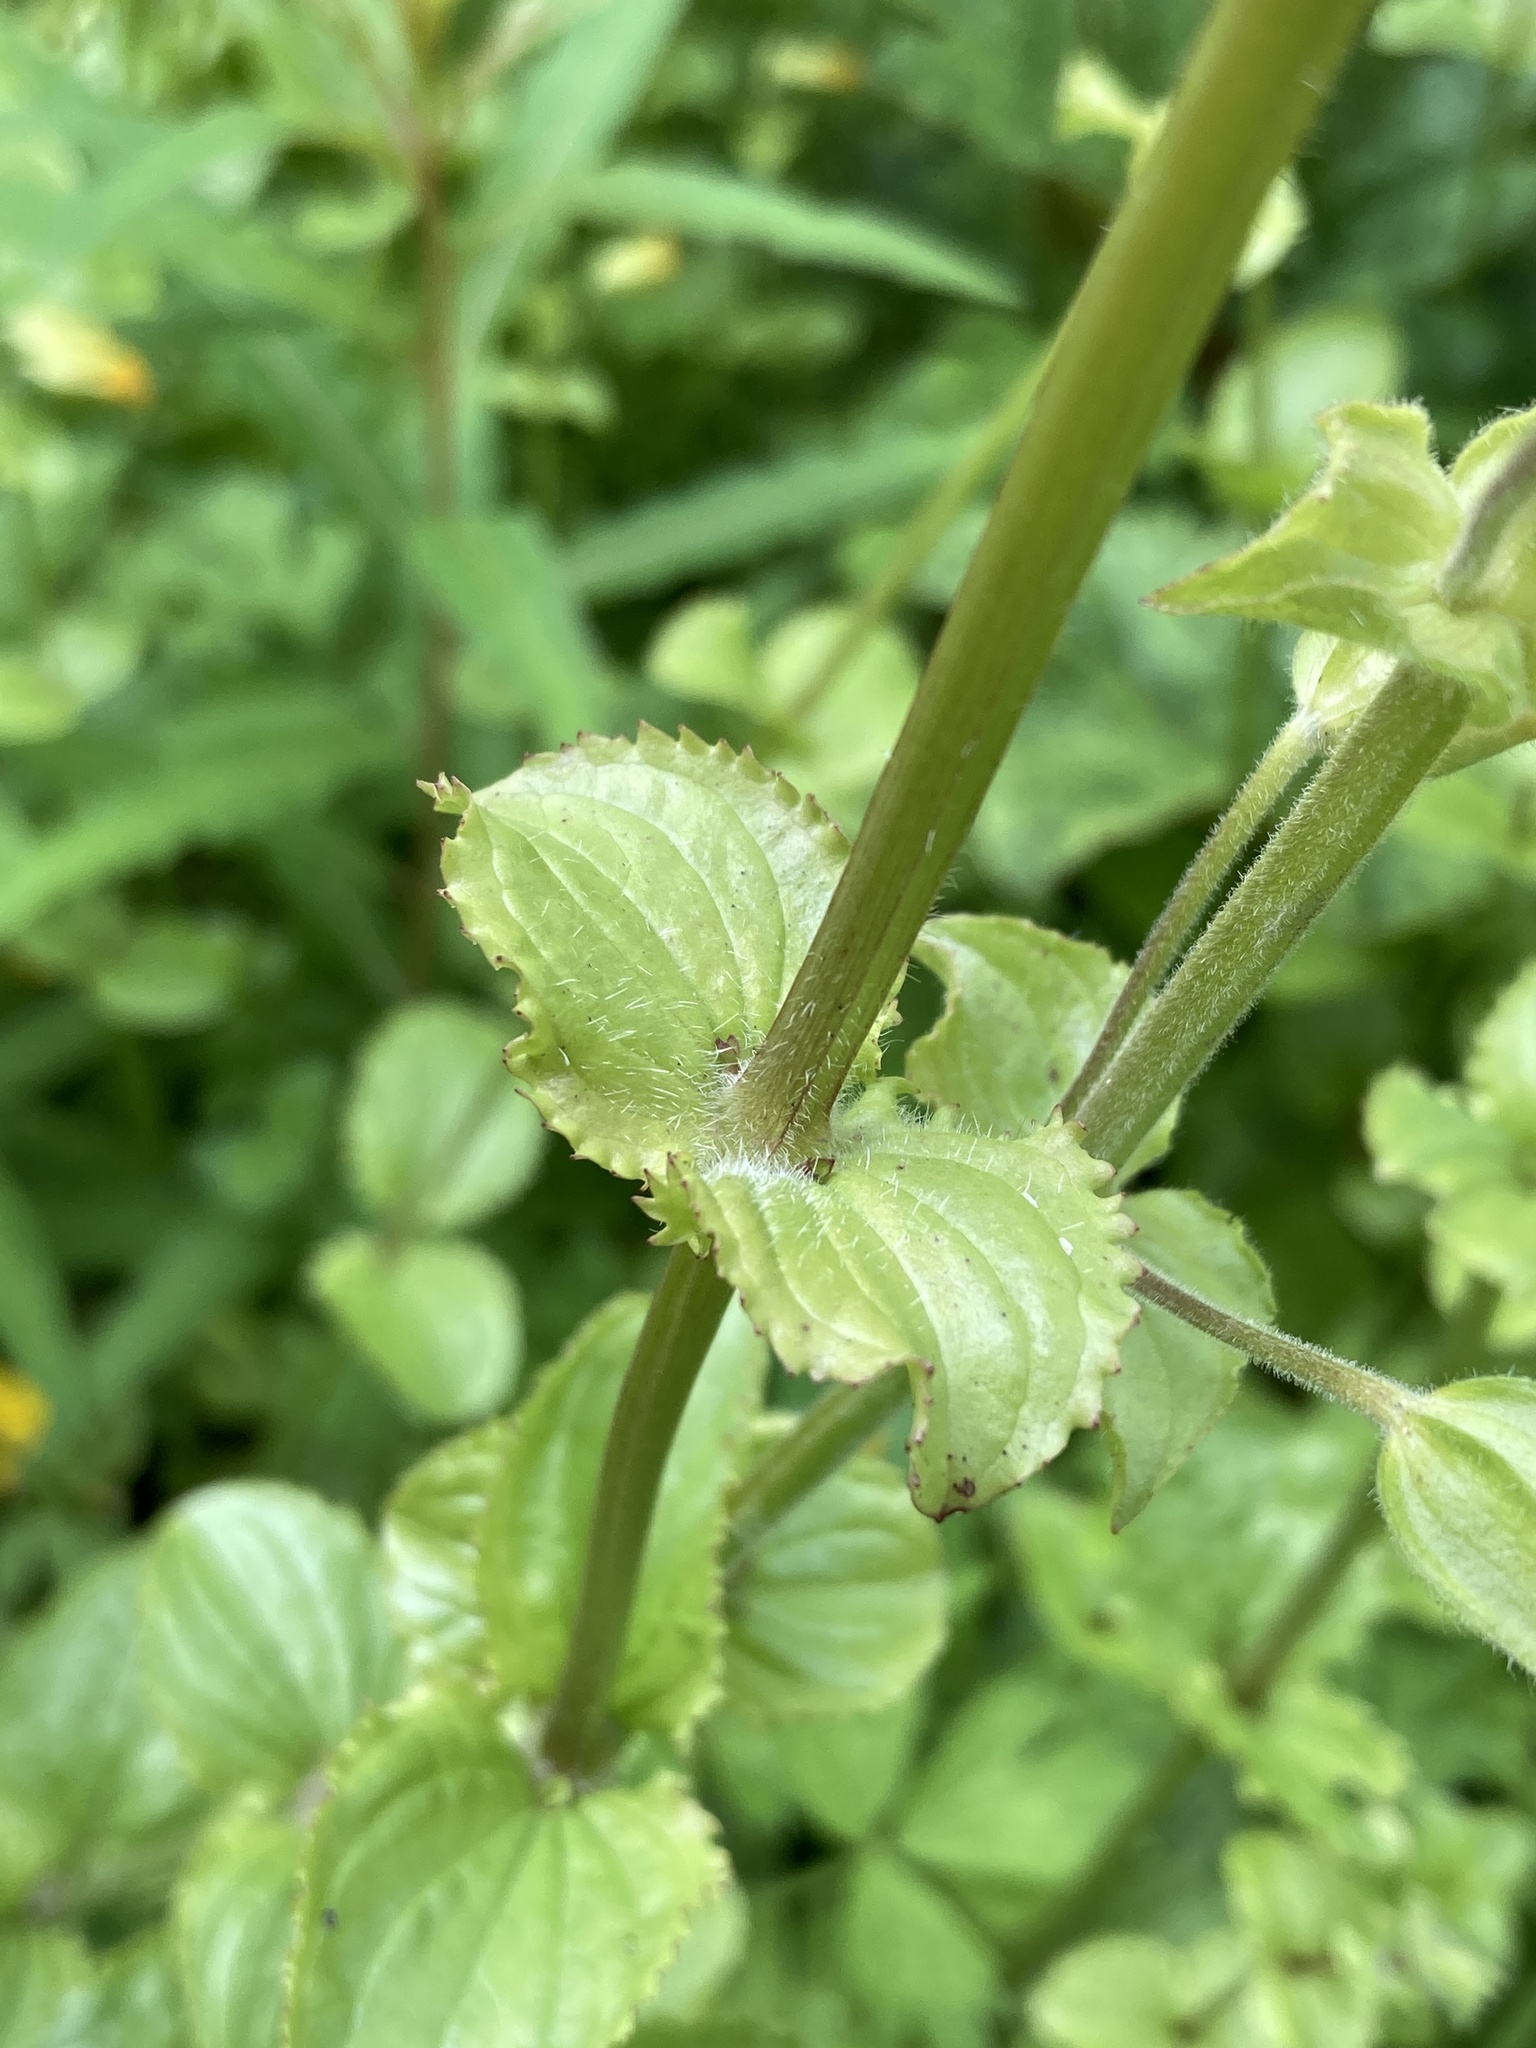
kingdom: Plantae
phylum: Tracheophyta
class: Magnoliopsida
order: Lamiales
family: Phrymaceae
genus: Erythranthe
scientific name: Erythranthe guttata
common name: Monkeyflower
